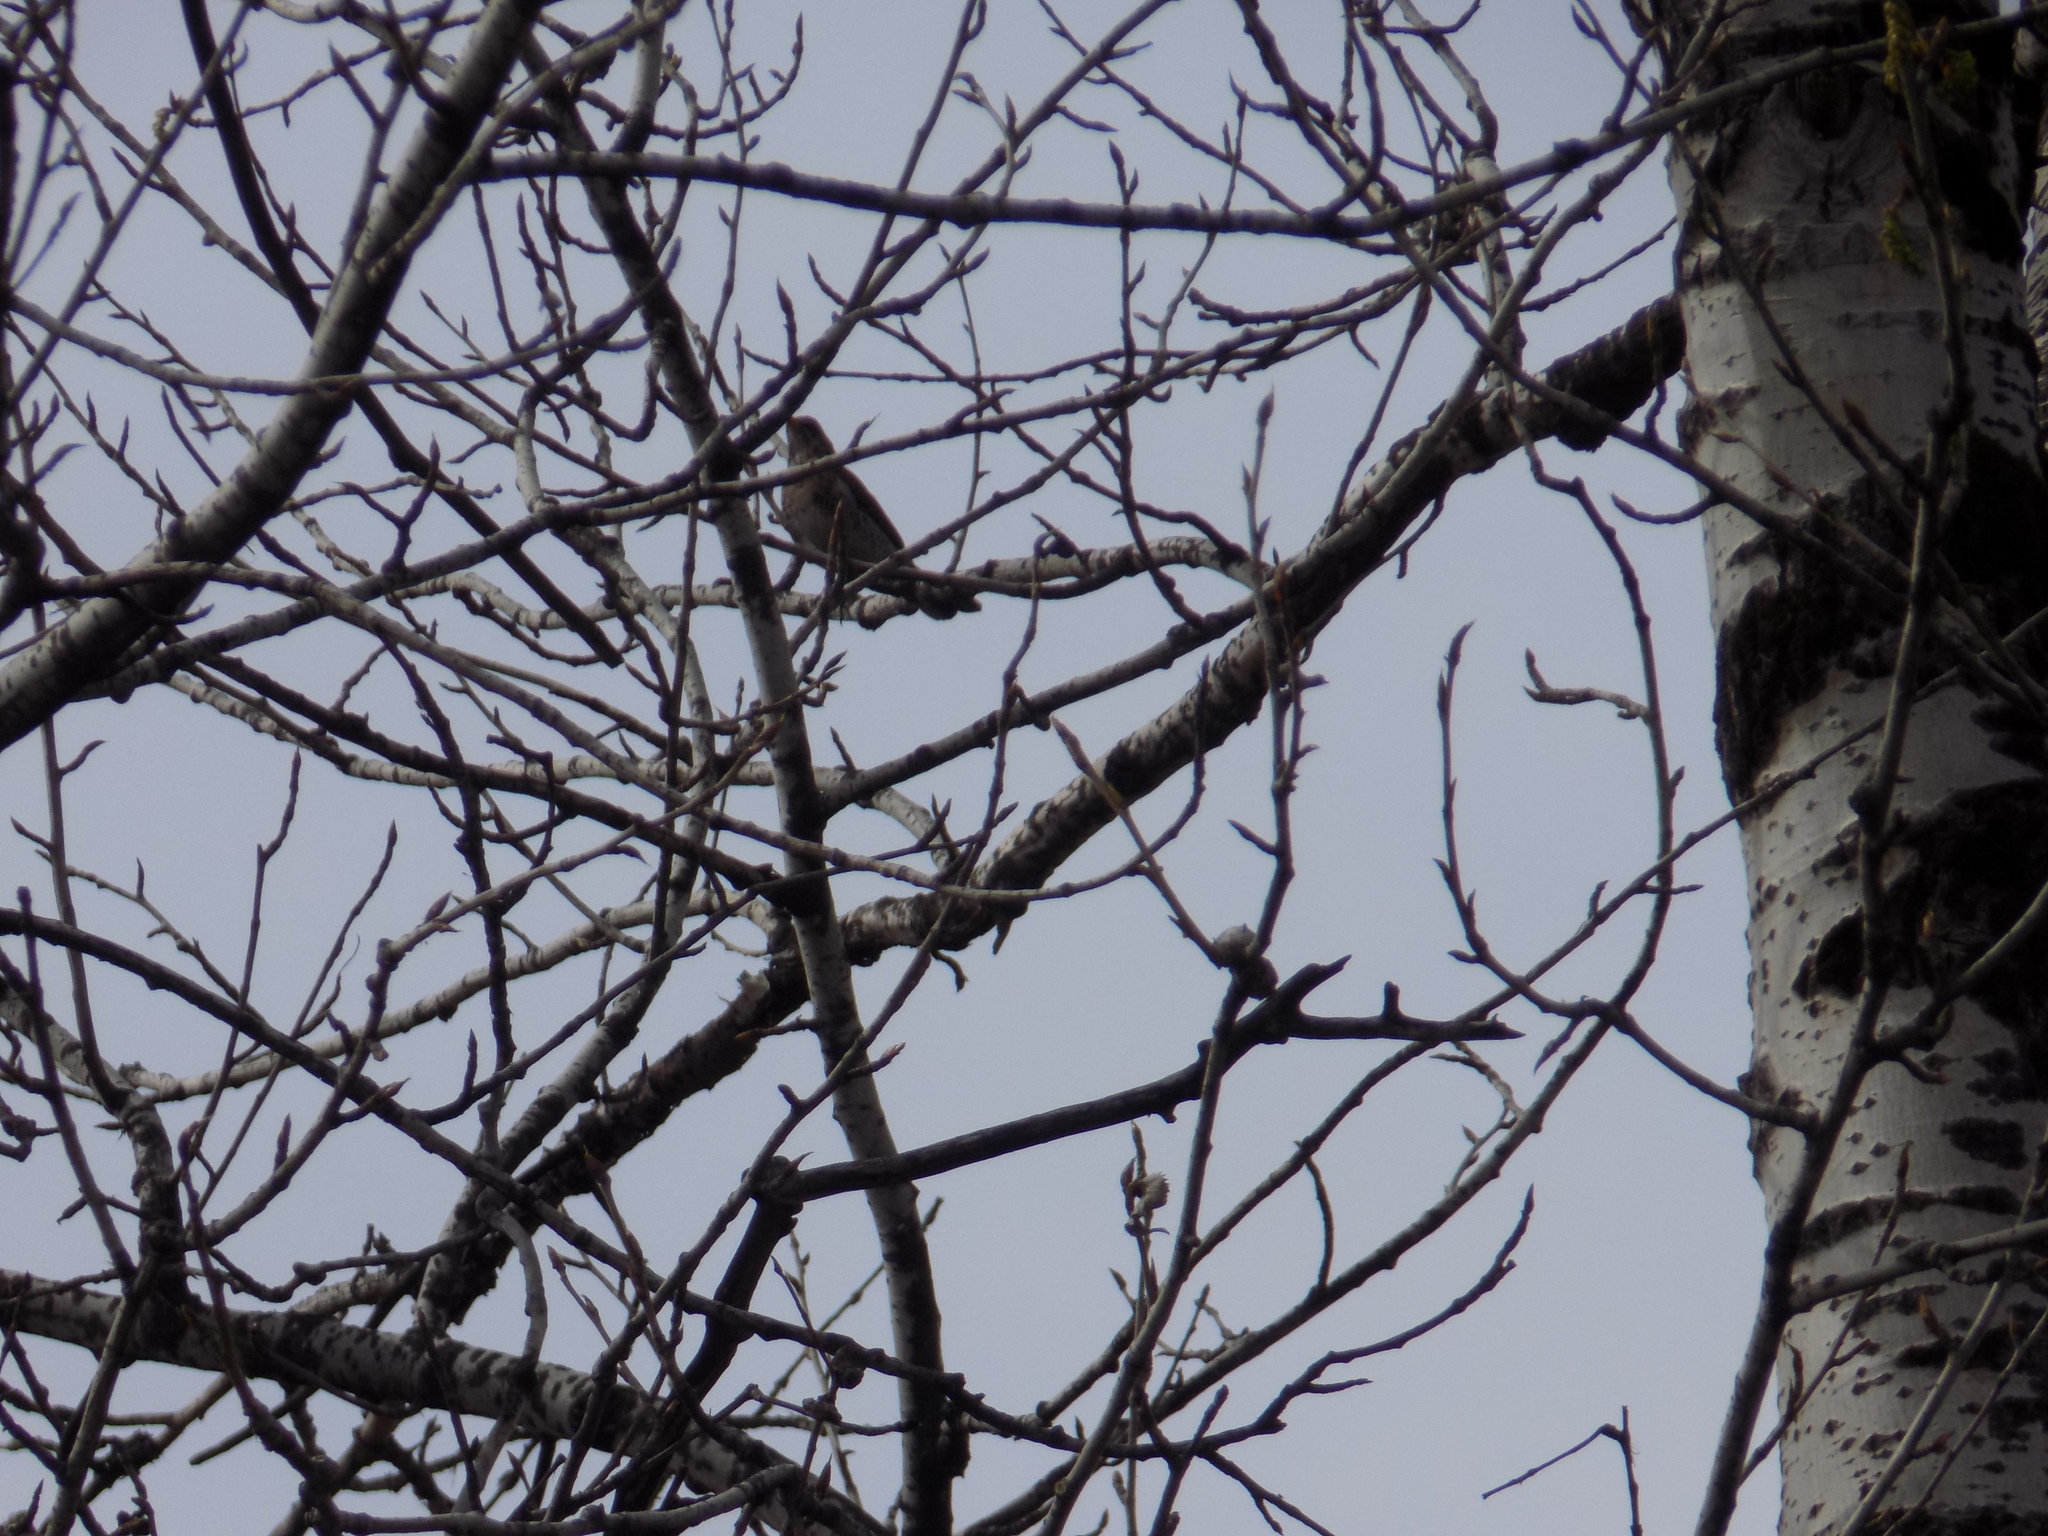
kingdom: Animalia
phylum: Chordata
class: Aves
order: Passeriformes
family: Turdidae
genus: Turdus
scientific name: Turdus pilaris
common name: Fieldfare
